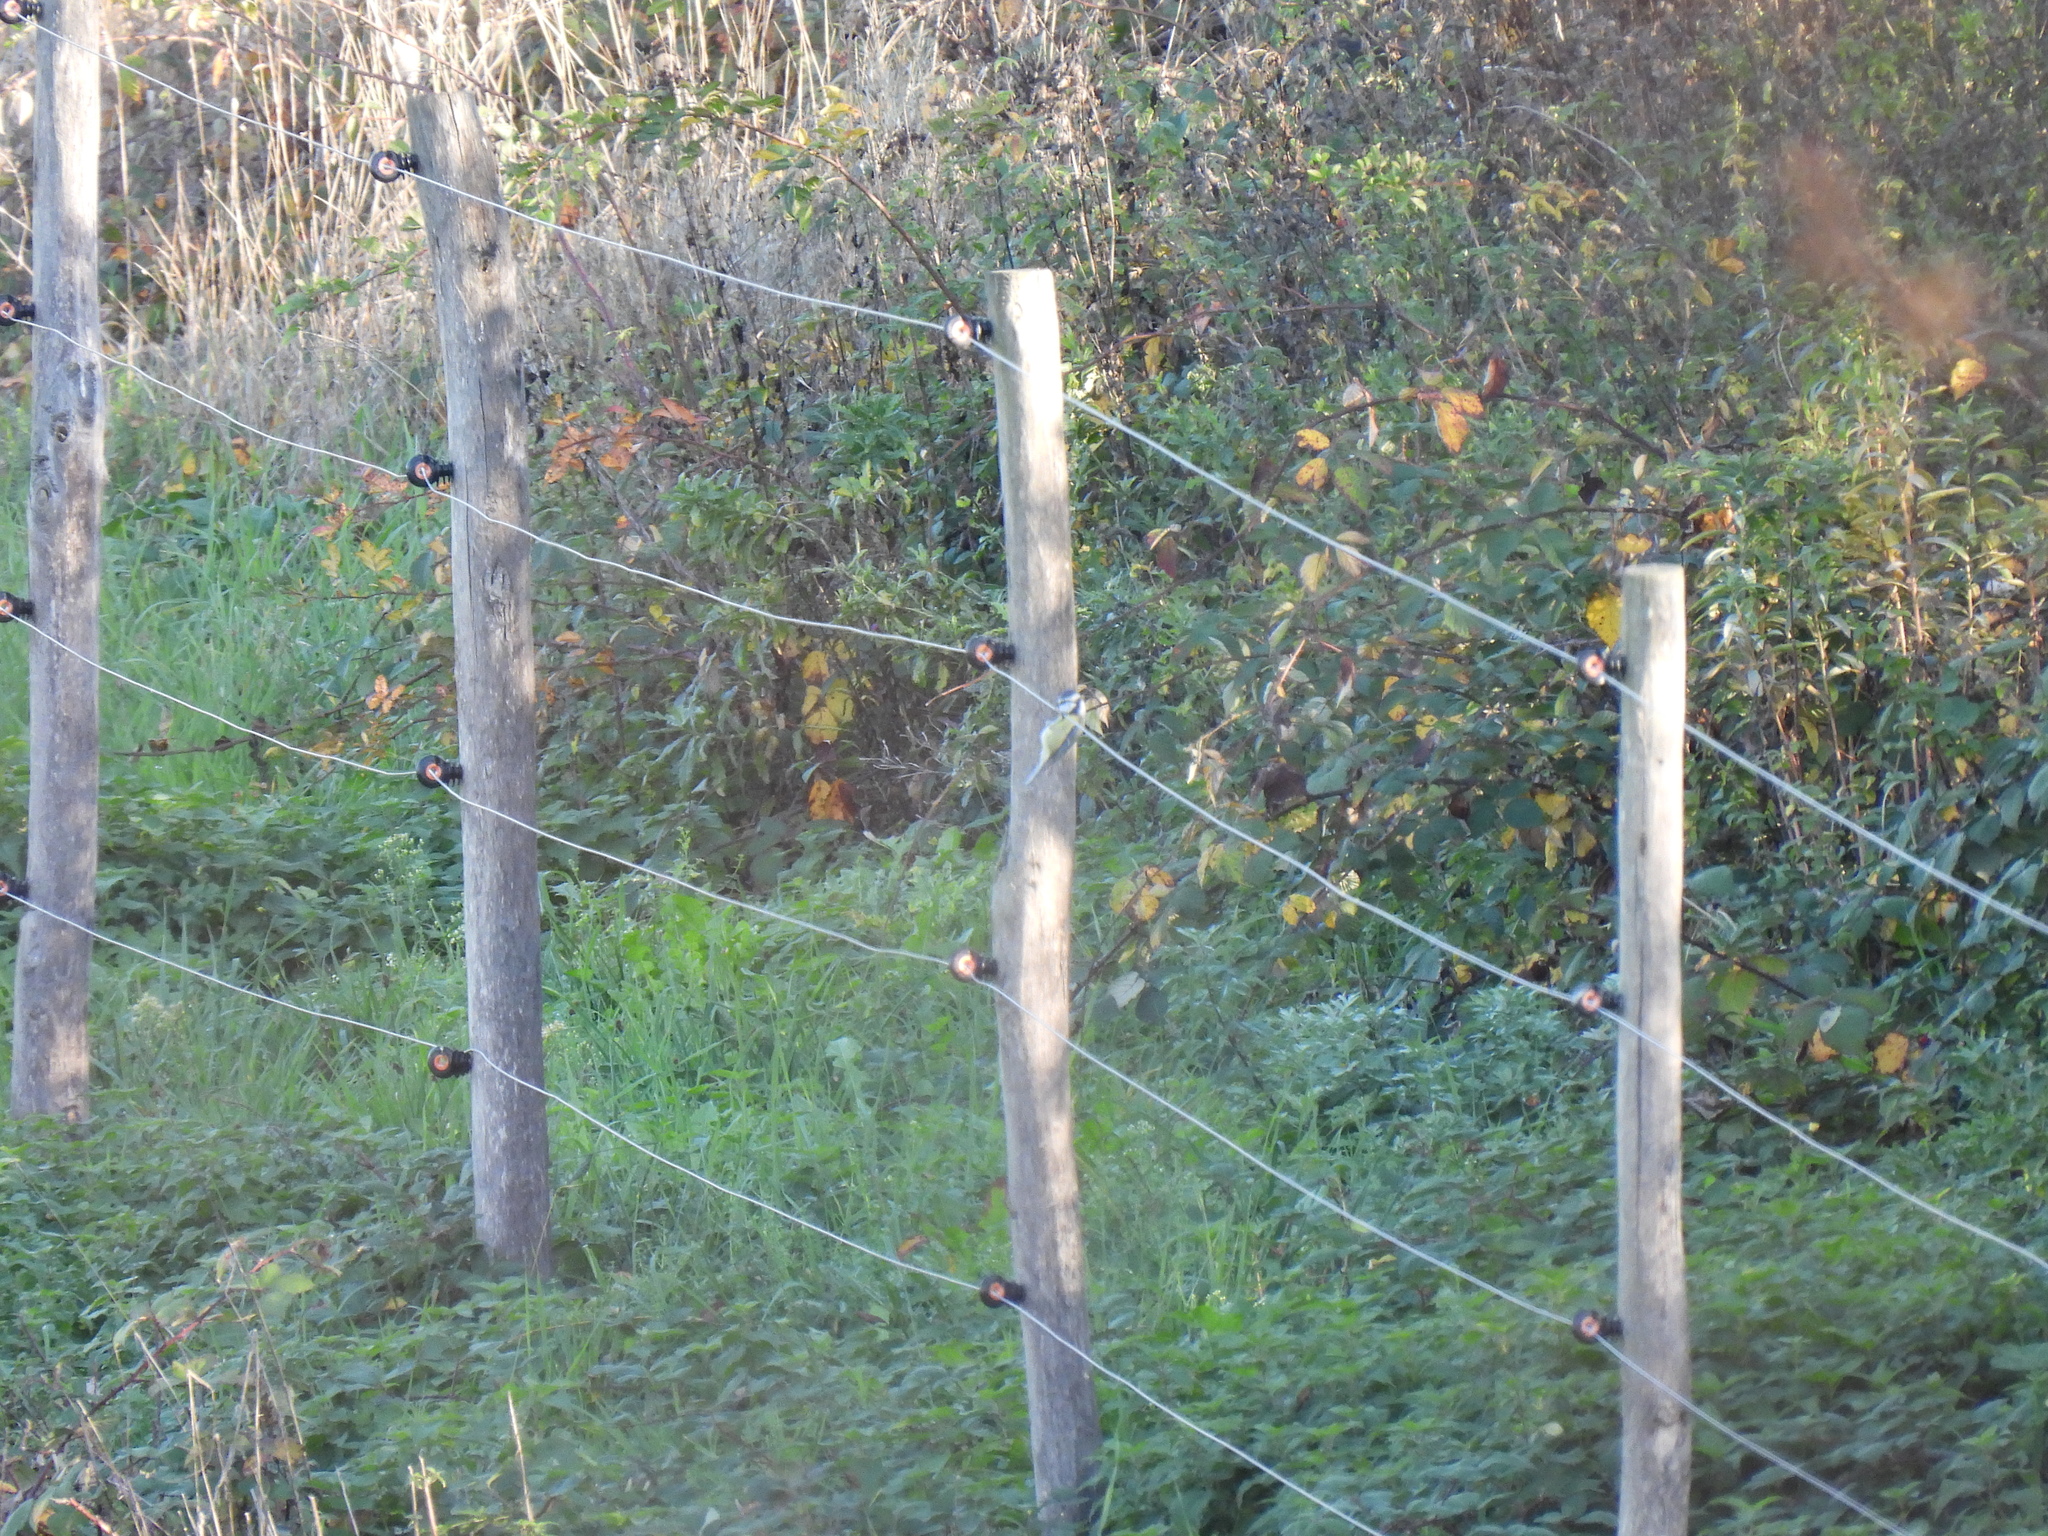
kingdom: Animalia
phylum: Chordata
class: Aves
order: Passeriformes
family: Paridae
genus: Cyanistes
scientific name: Cyanistes caeruleus
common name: Eurasian blue tit
